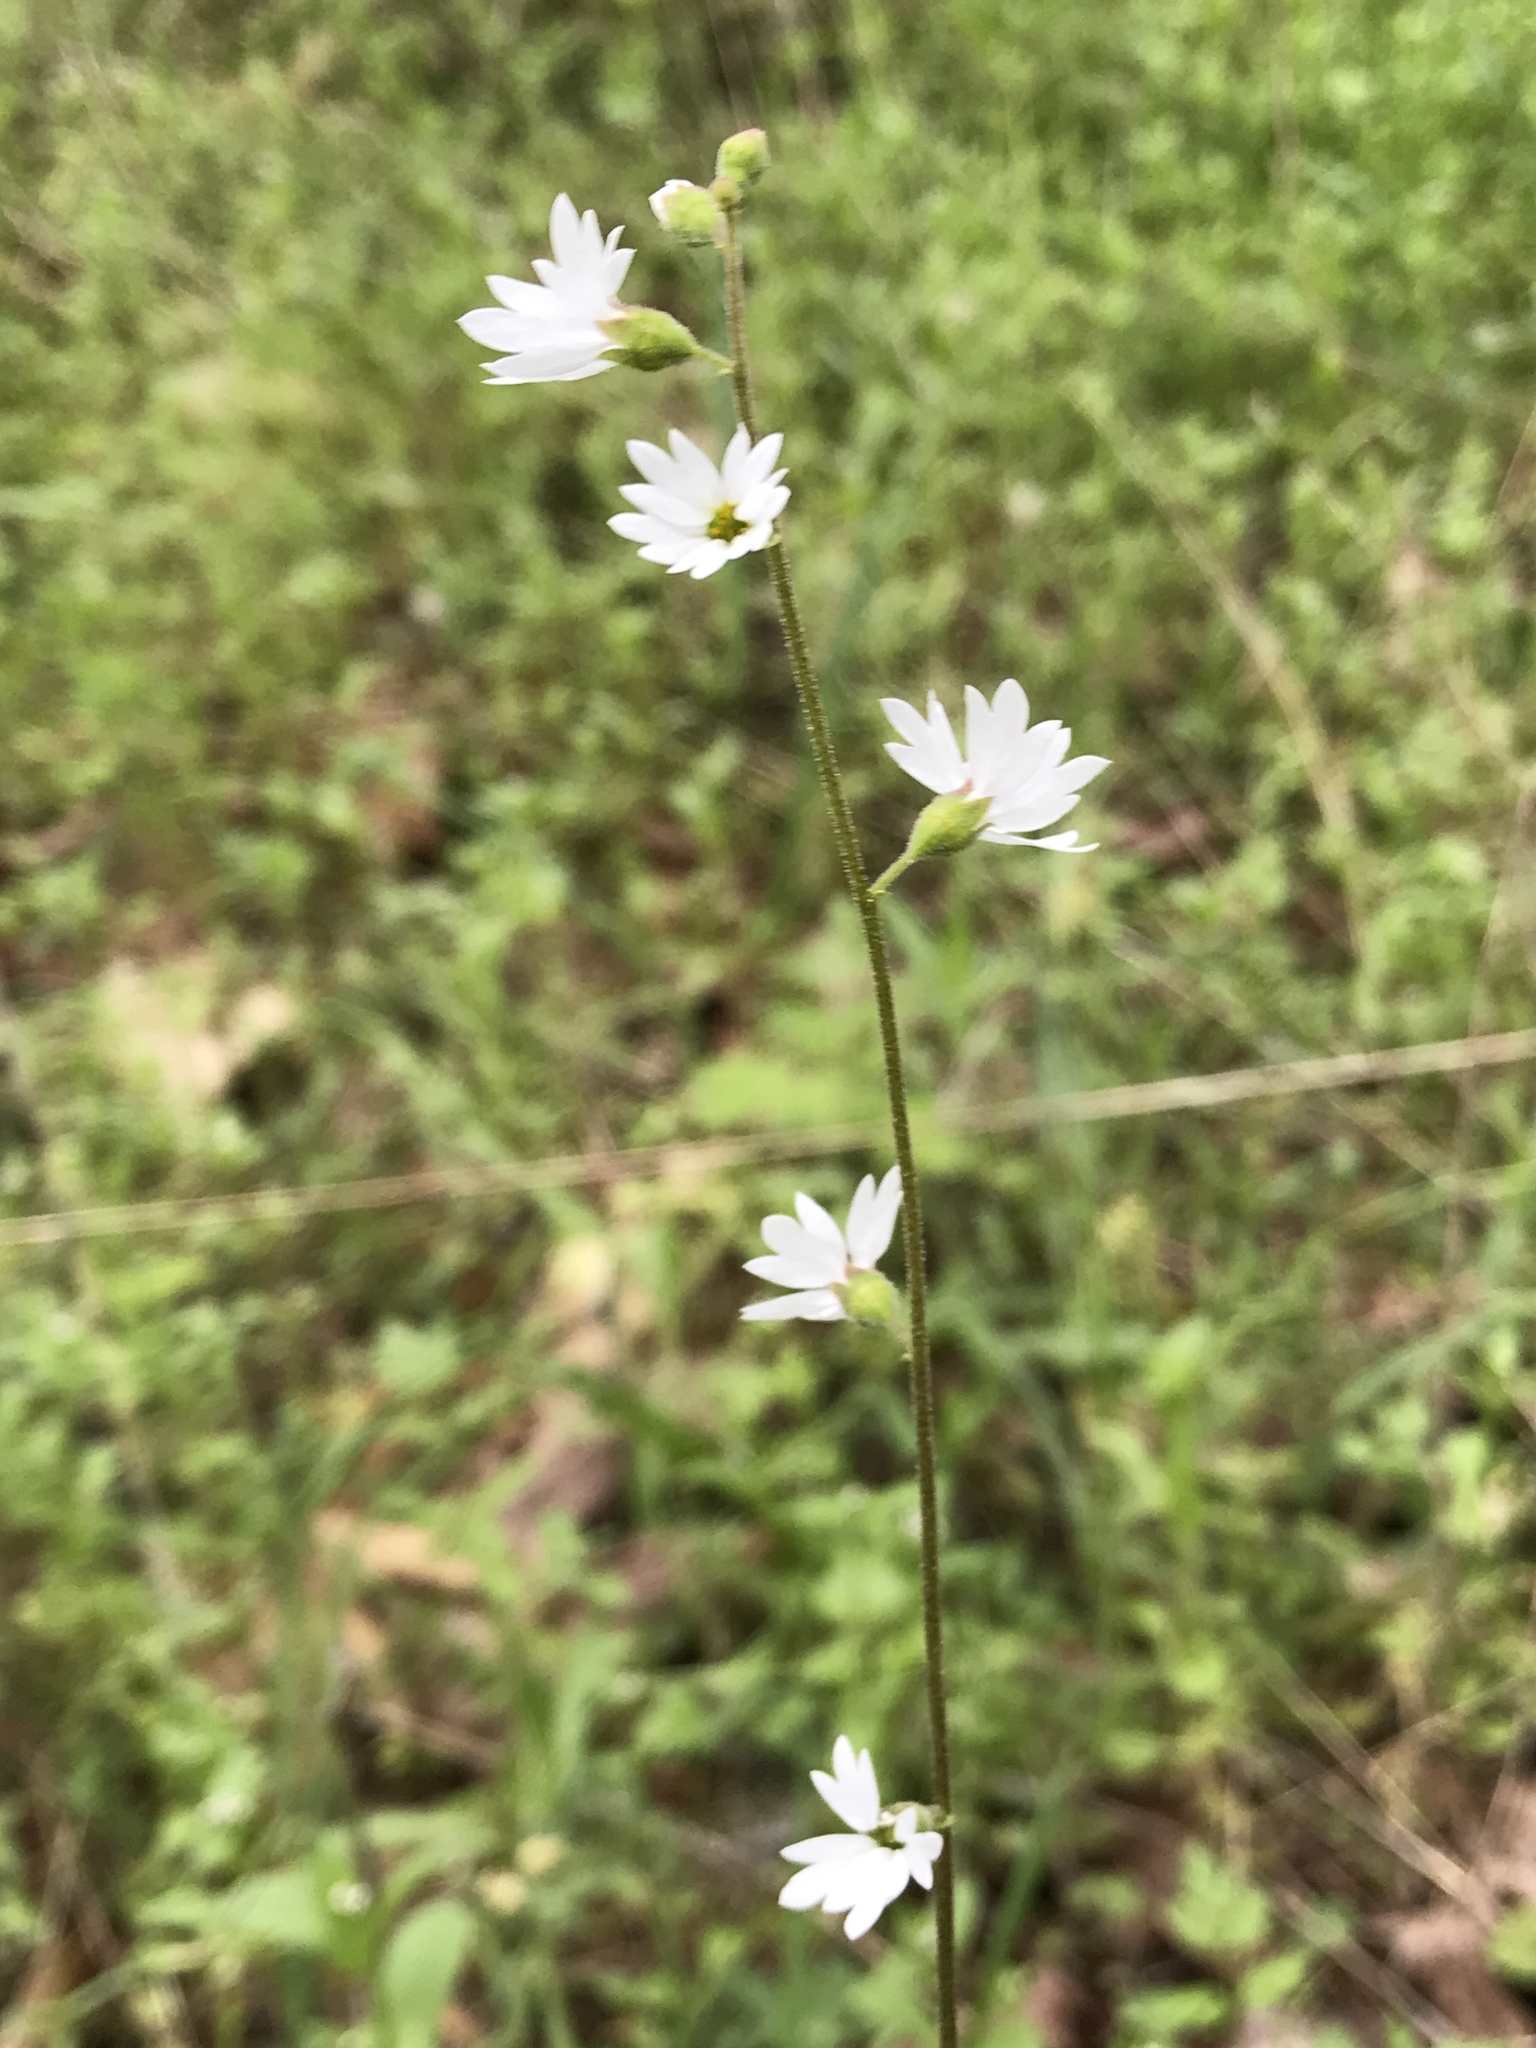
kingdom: Plantae
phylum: Tracheophyta
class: Magnoliopsida
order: Saxifragales
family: Saxifragaceae
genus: Lithophragma
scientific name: Lithophragma affine
